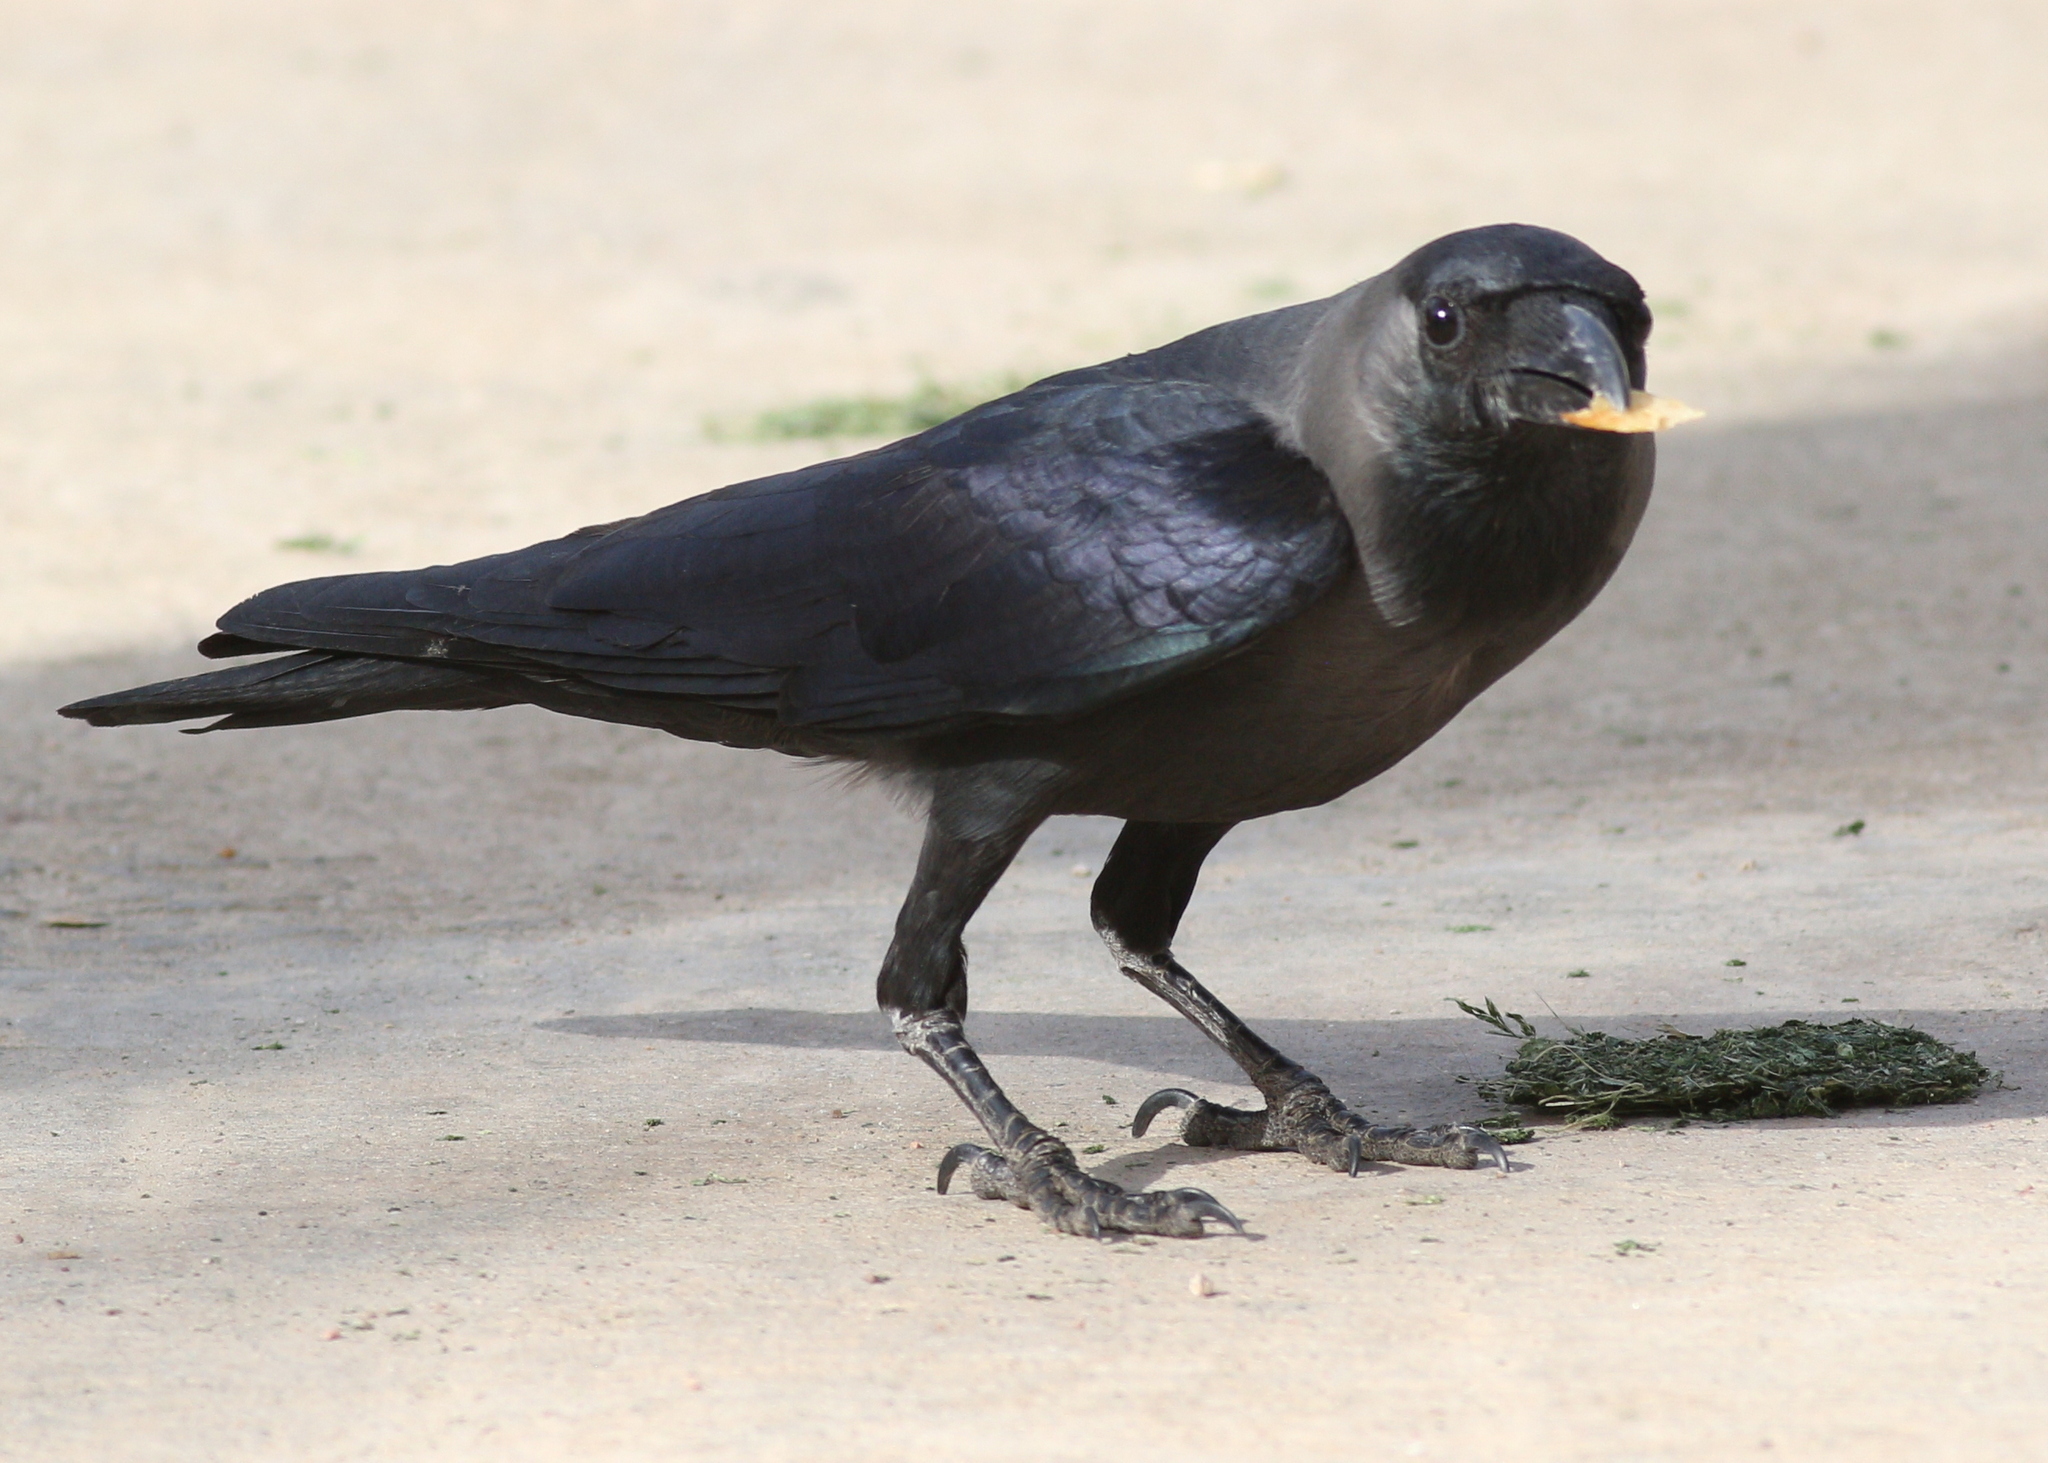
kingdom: Animalia
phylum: Chordata
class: Aves
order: Passeriformes
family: Corvidae
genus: Corvus
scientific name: Corvus splendens
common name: House crow
